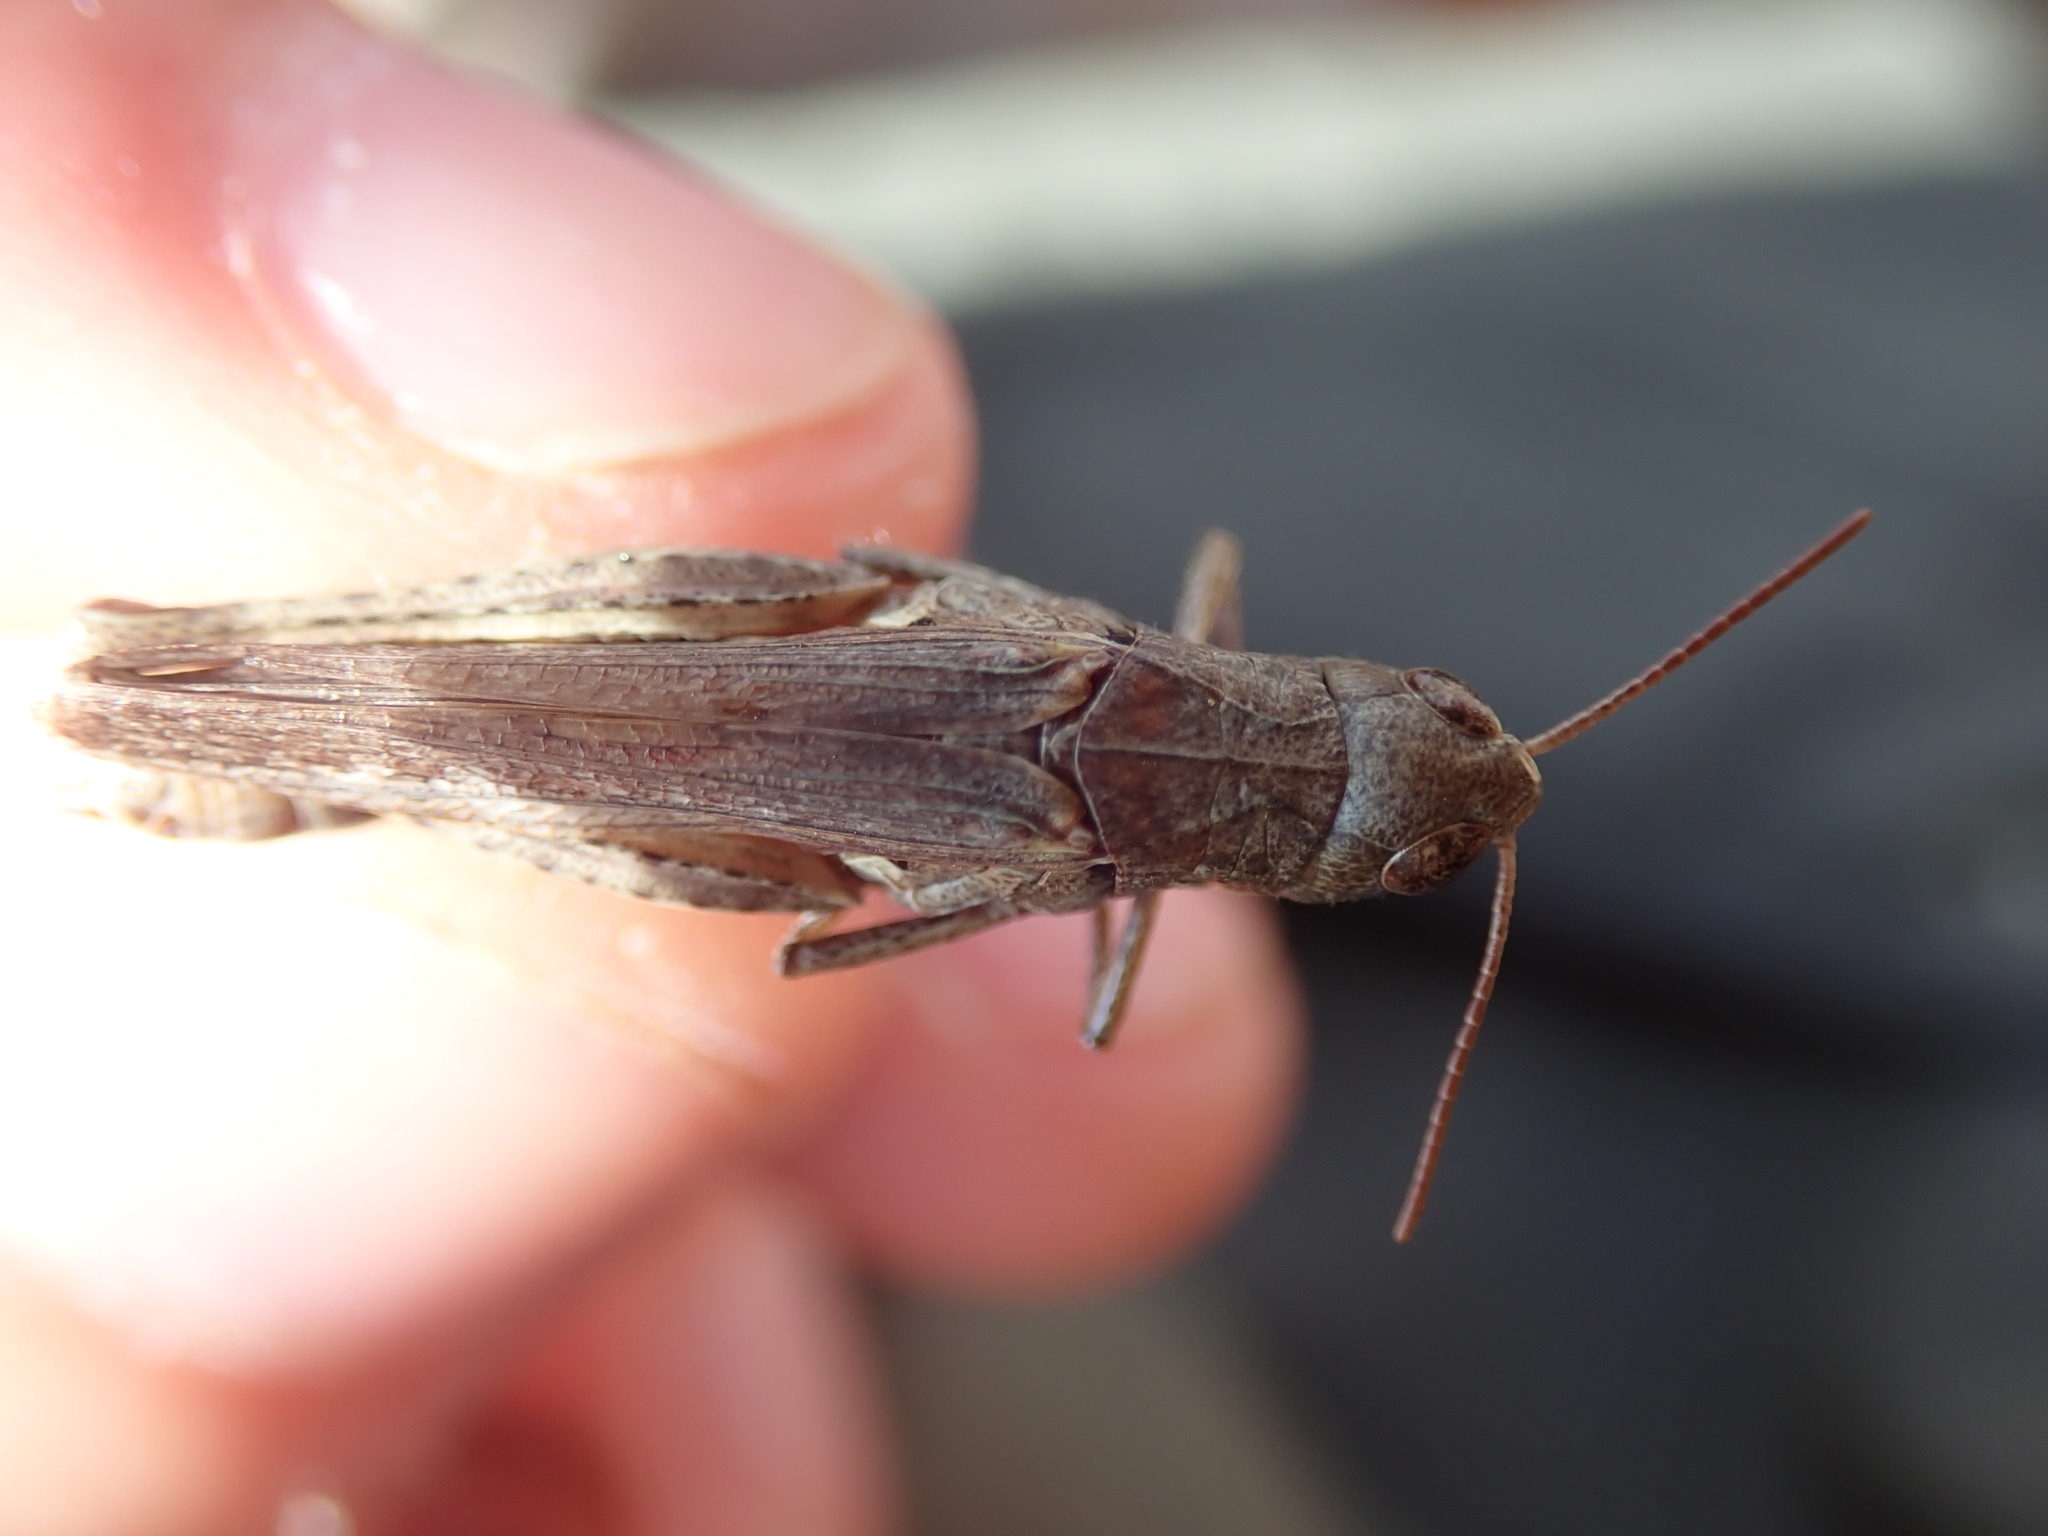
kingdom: Animalia
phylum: Arthropoda
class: Insecta
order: Orthoptera
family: Acrididae
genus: Omocestus
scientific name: Omocestus haemorrhoidalis
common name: Orange-tipped grasshopper
